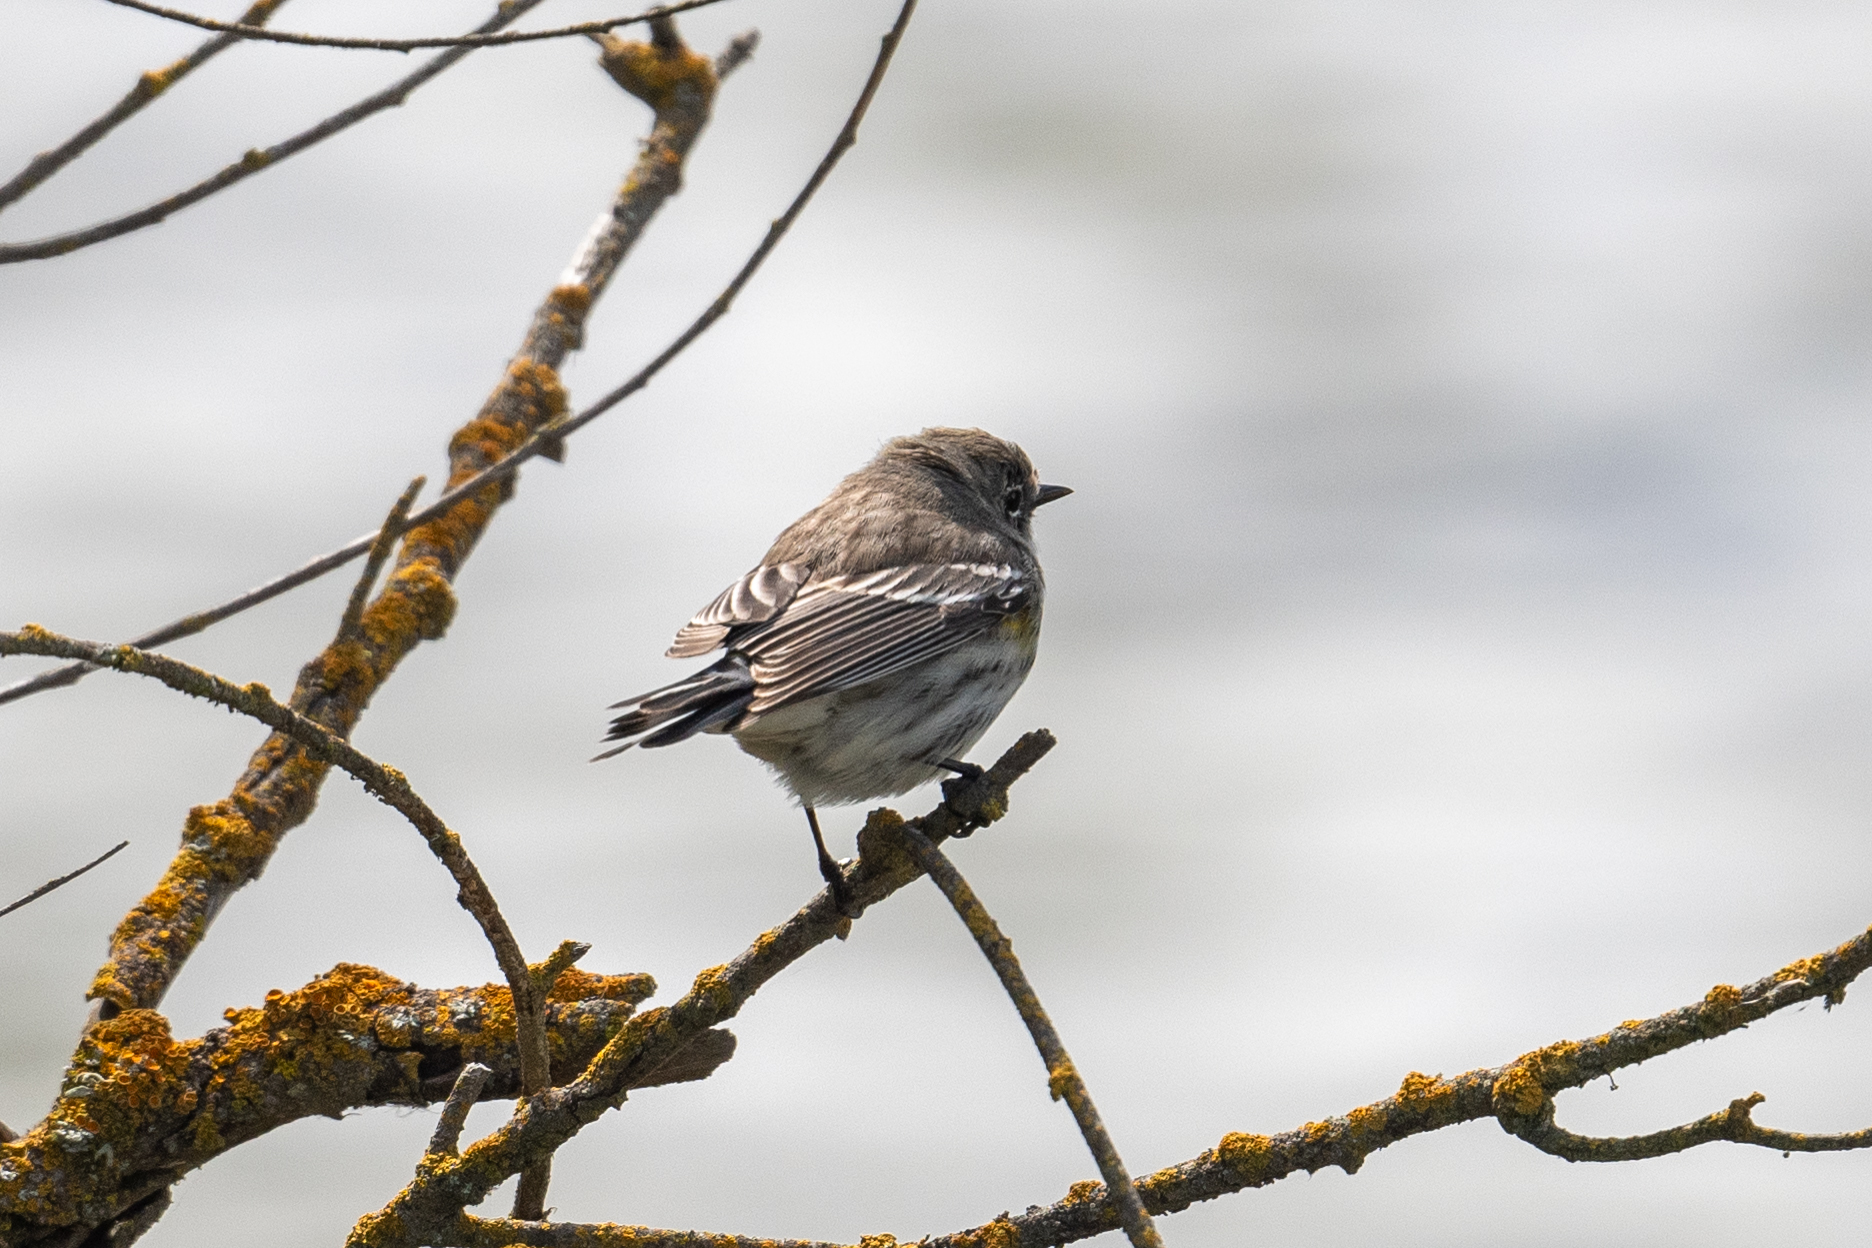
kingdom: Animalia
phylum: Chordata
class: Aves
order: Passeriformes
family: Parulidae
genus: Setophaga
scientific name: Setophaga coronata
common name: Myrtle warbler
